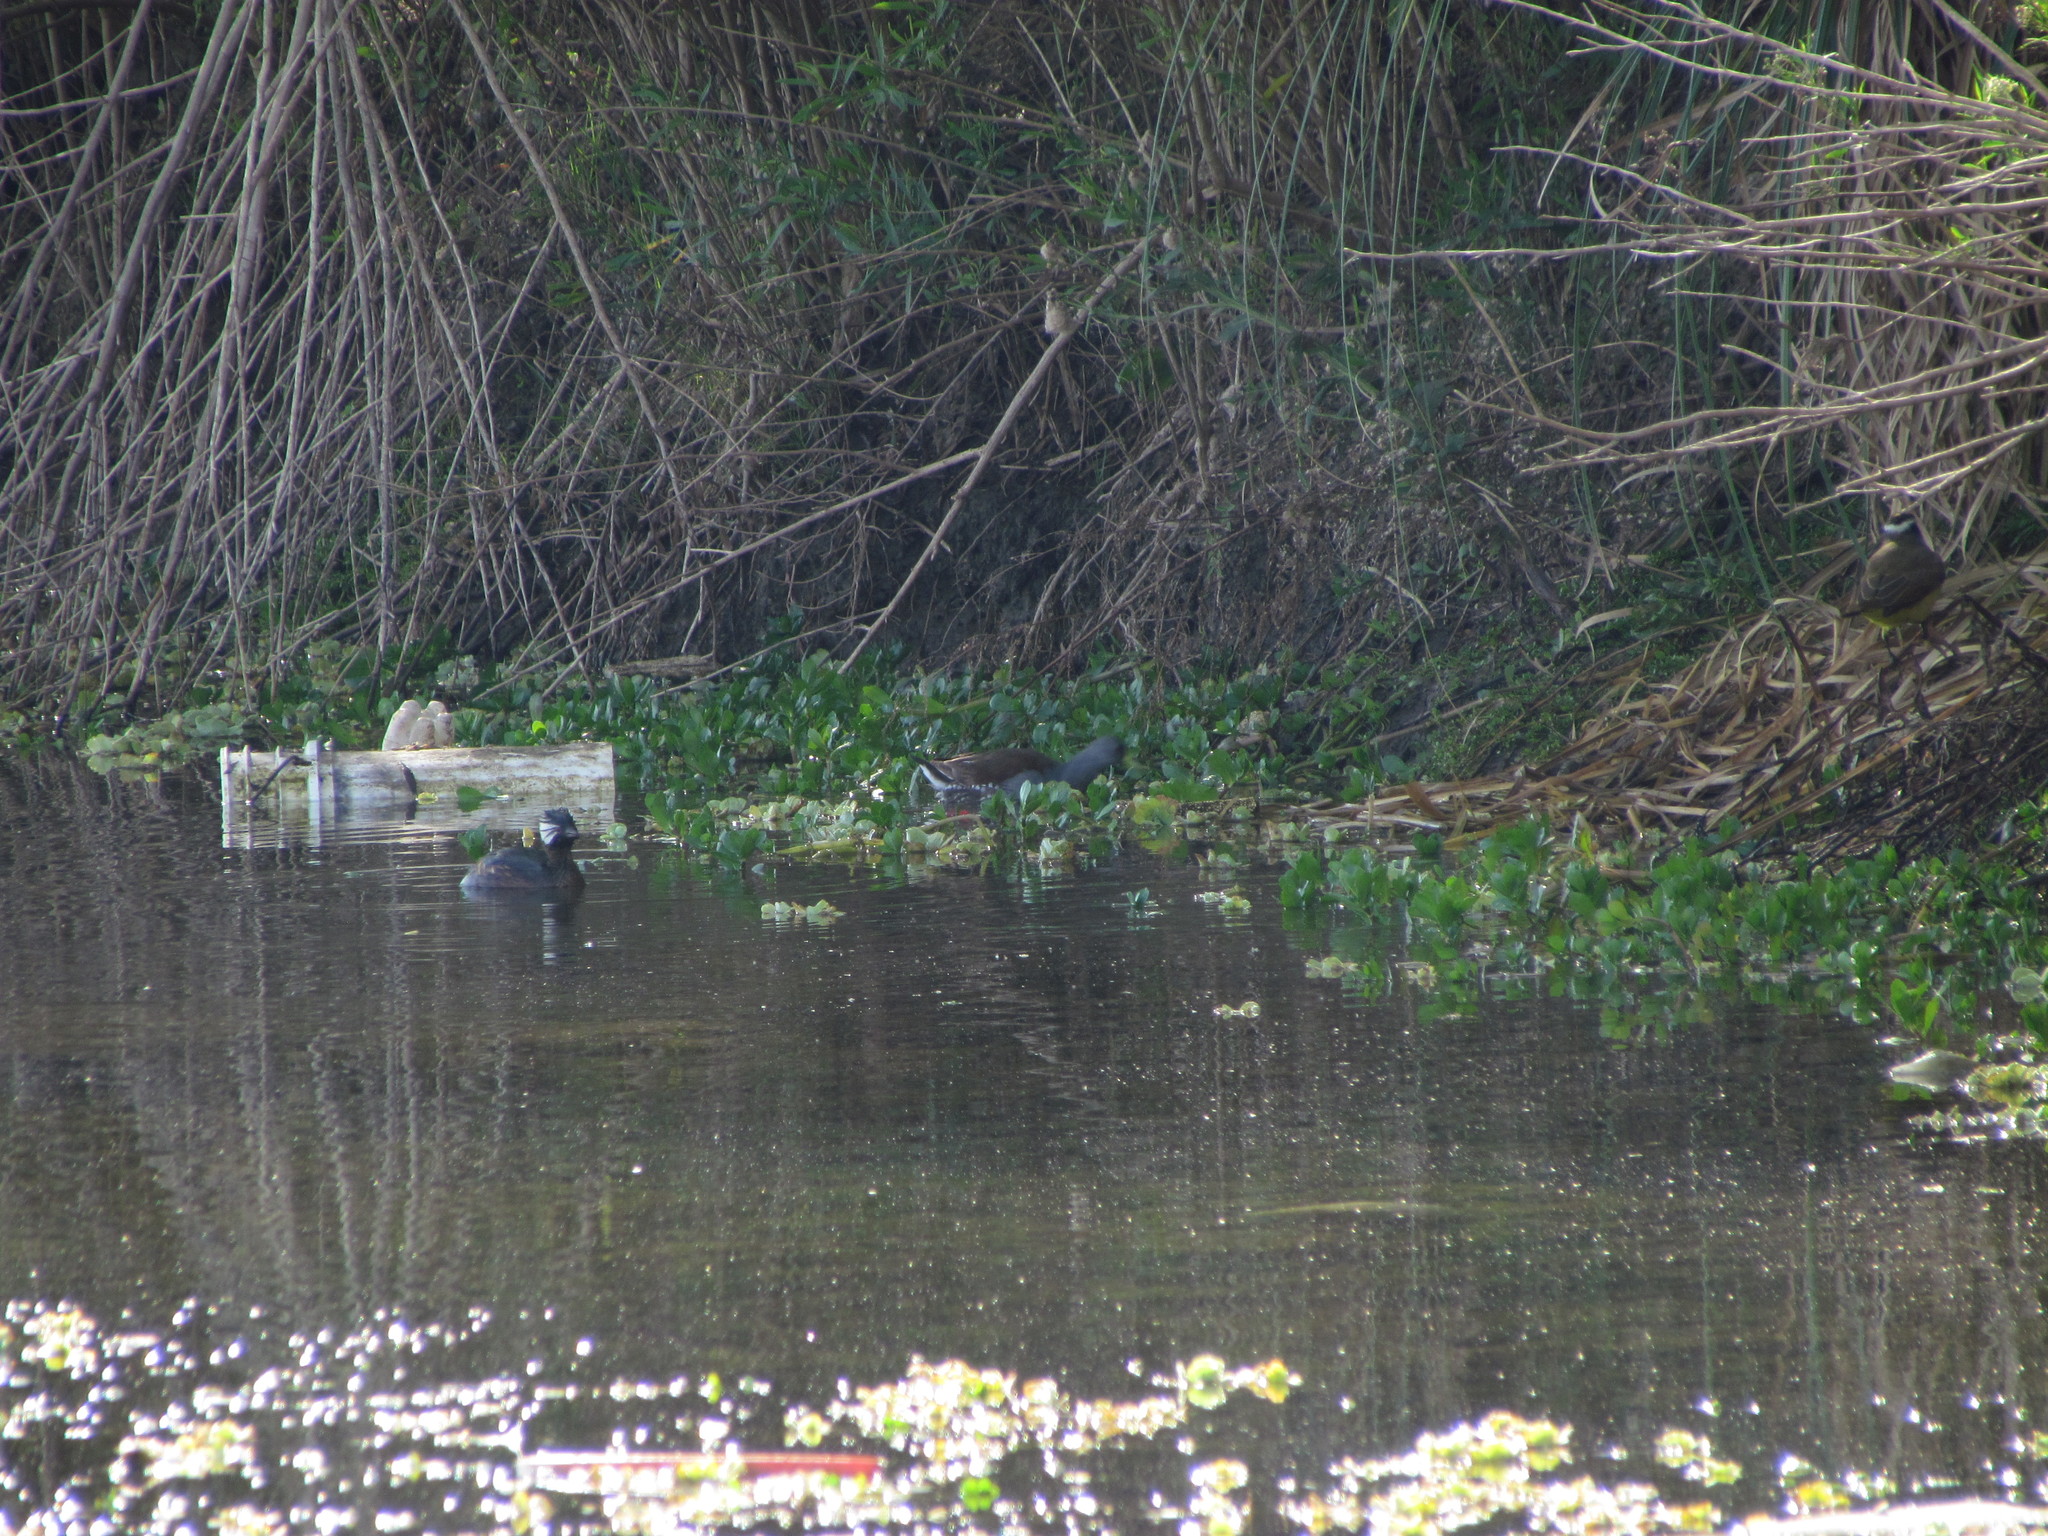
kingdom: Animalia
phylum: Chordata
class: Aves
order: Gruiformes
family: Rallidae
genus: Gallinula
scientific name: Gallinula melanops
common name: Spot-flanked gallinule
